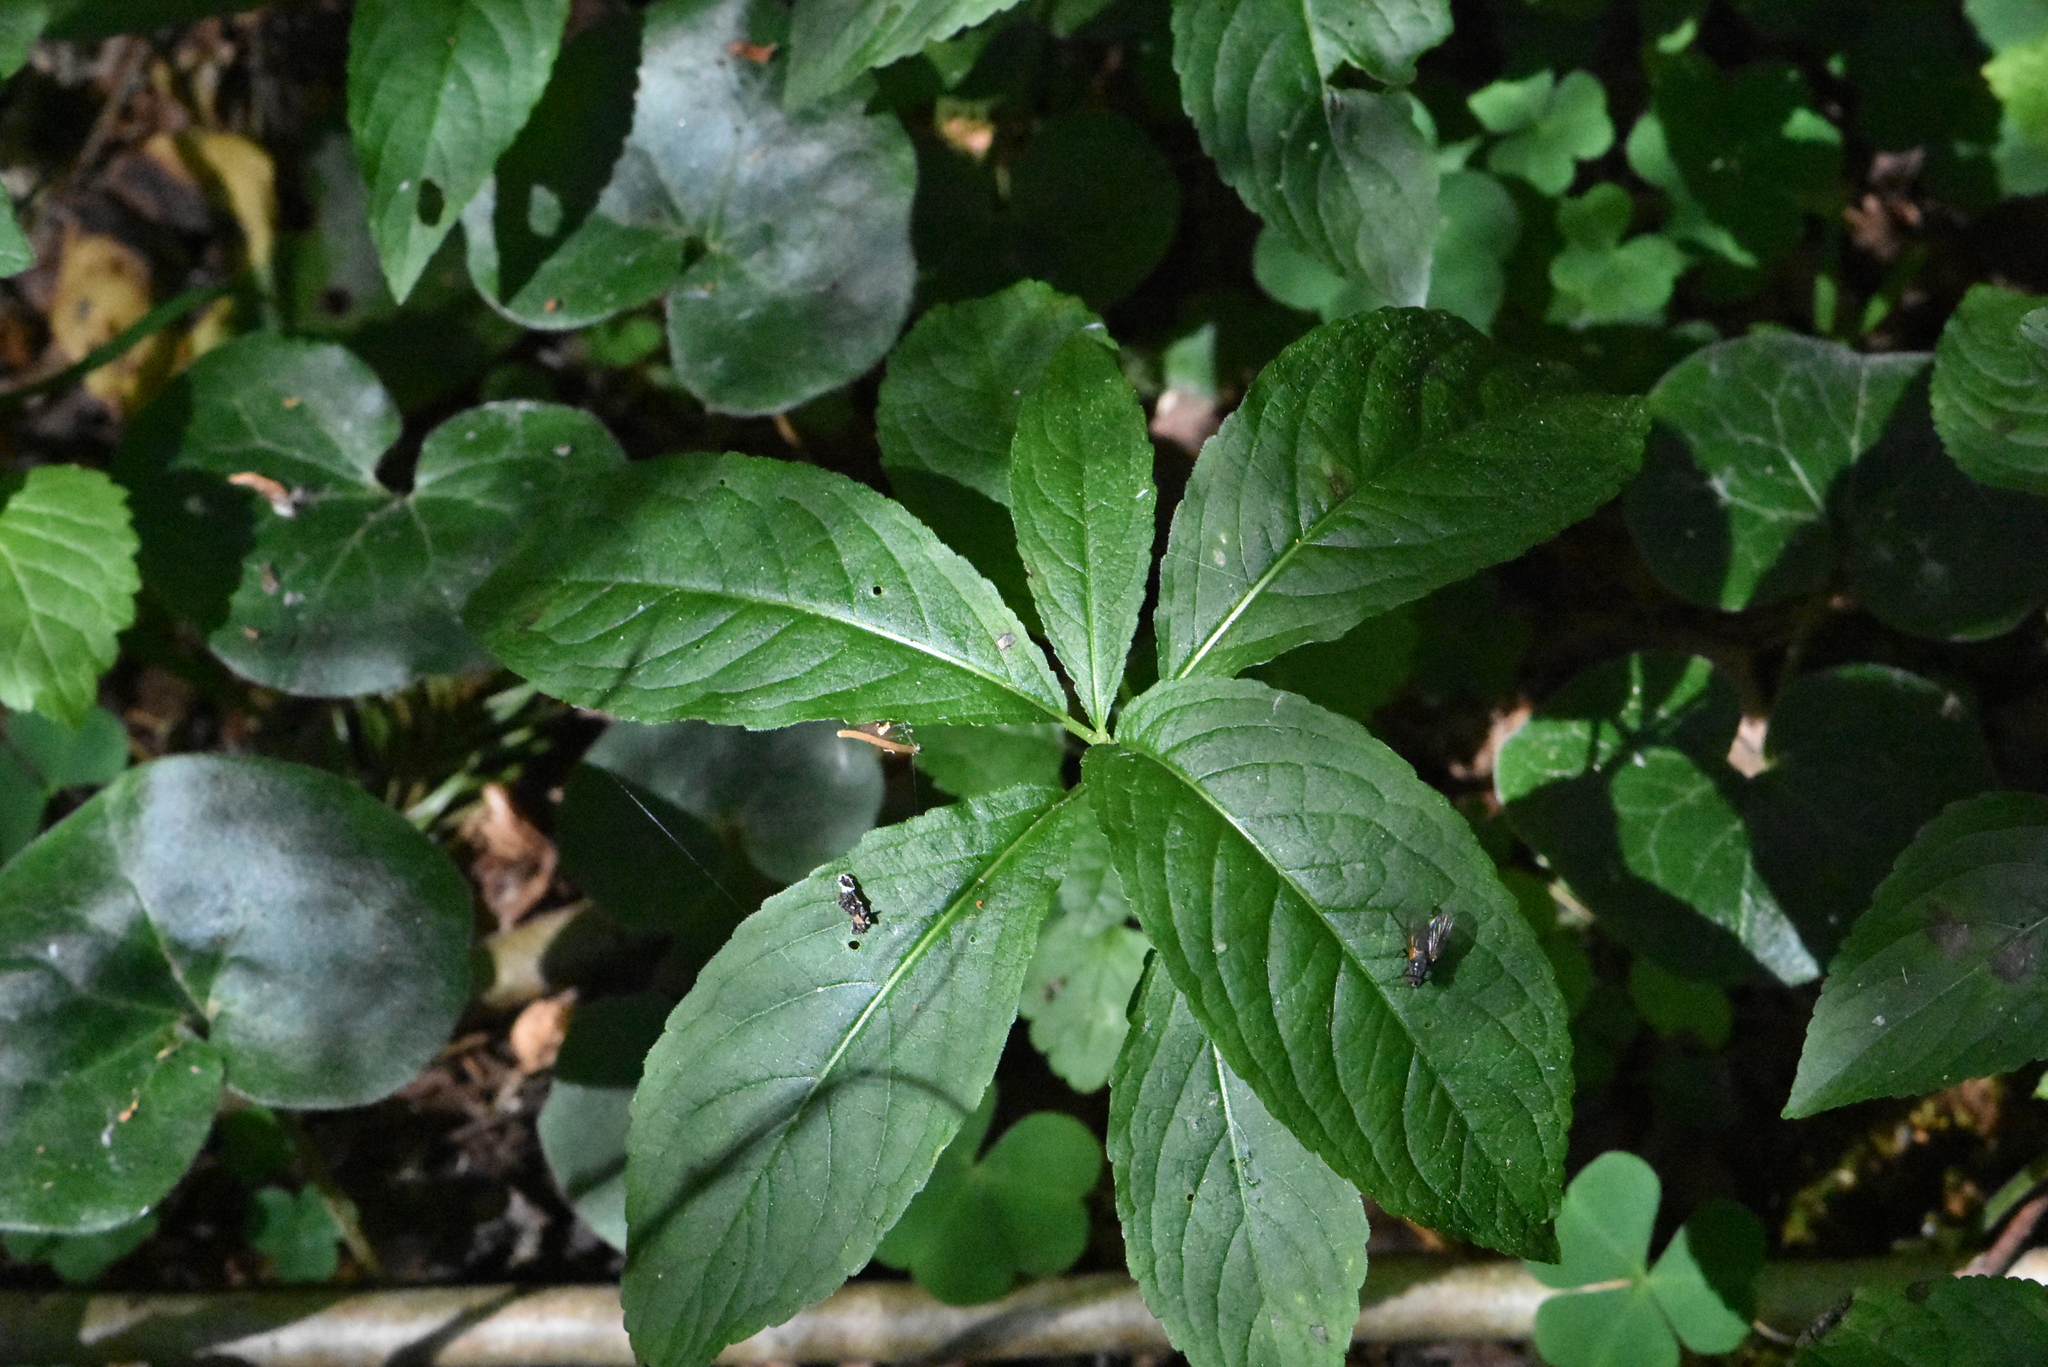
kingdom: Plantae
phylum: Tracheophyta
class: Magnoliopsida
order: Malpighiales
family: Euphorbiaceae
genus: Mercurialis
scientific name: Mercurialis perennis
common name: Dog mercury
